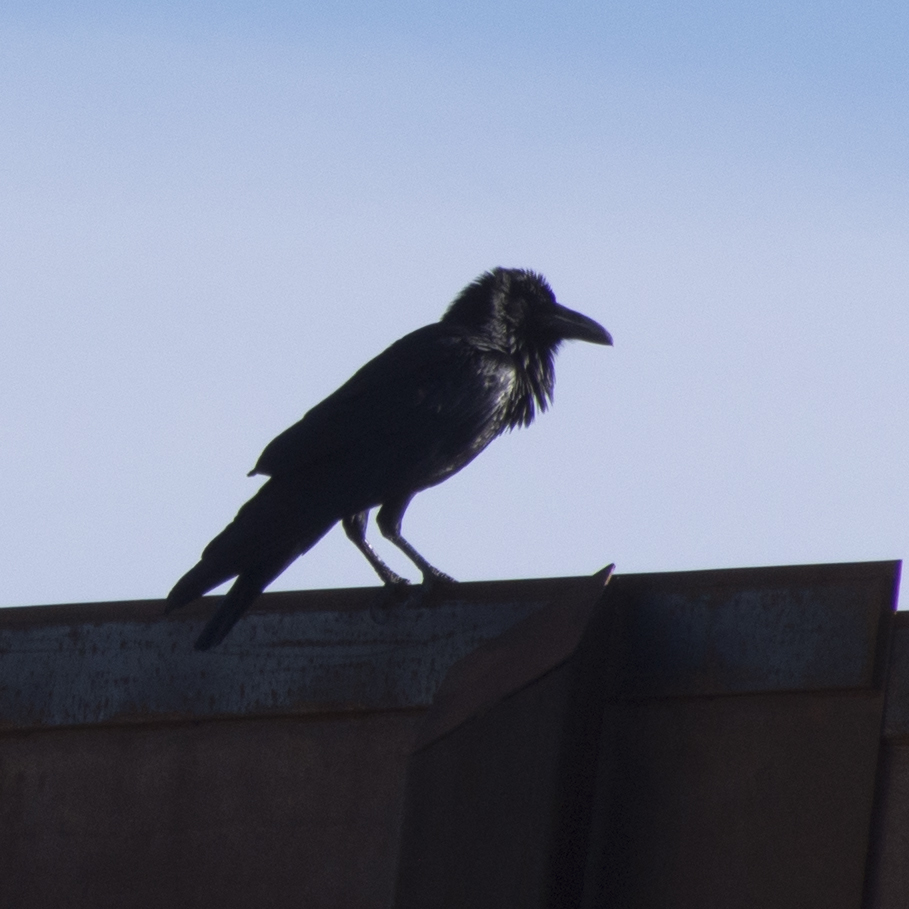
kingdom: Animalia
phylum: Chordata
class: Aves
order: Passeriformes
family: Corvidae
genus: Corvus
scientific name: Corvus corax
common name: Common raven
